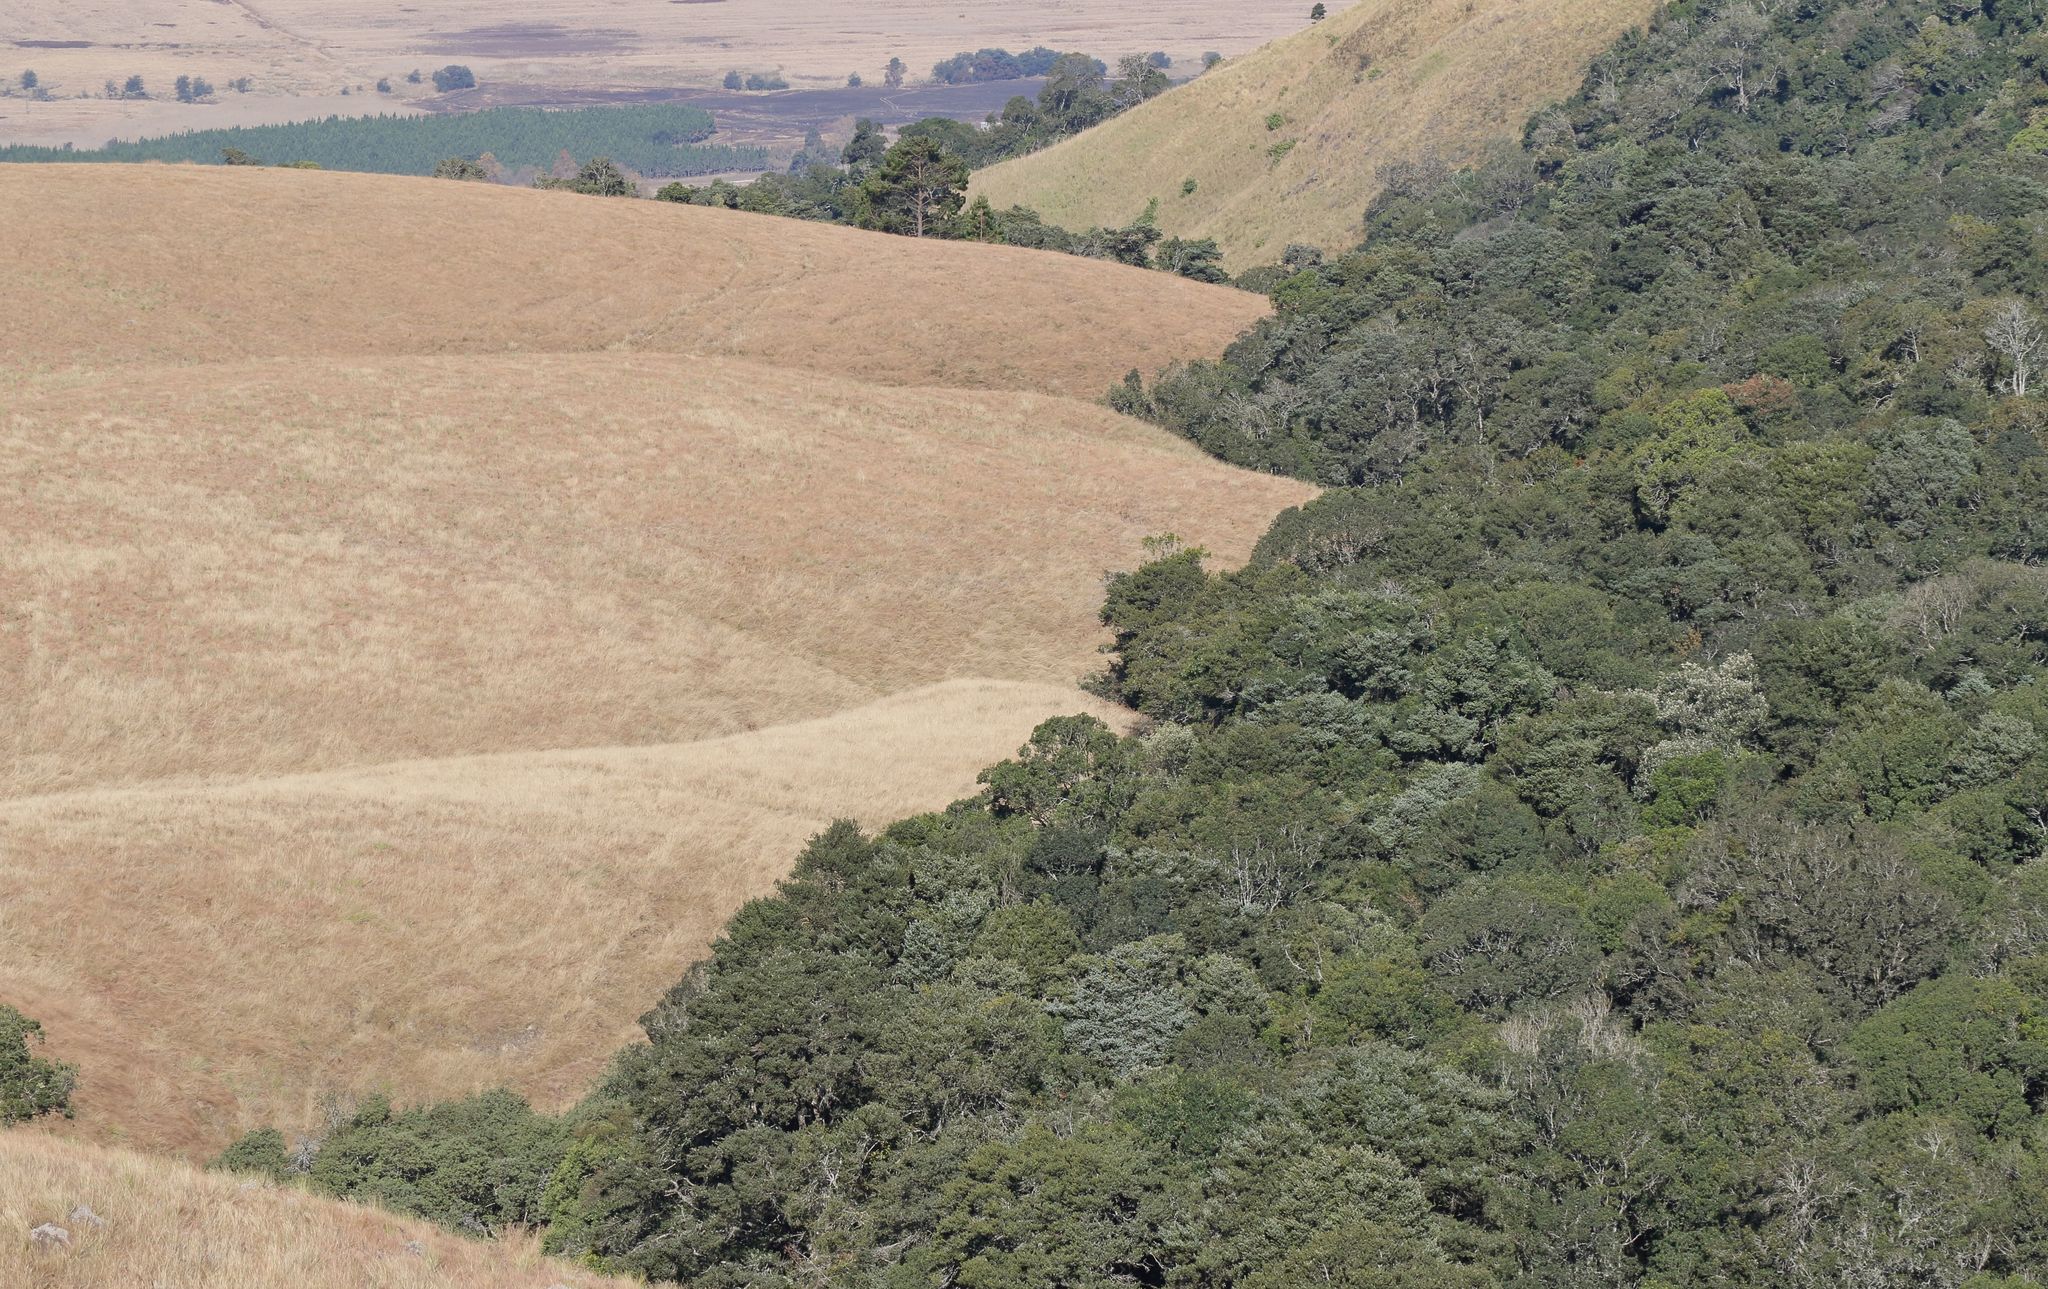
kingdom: Plantae
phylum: Tracheophyta
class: Liliopsida
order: Poales
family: Poaceae
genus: Aristida
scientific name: Aristida junciformis
